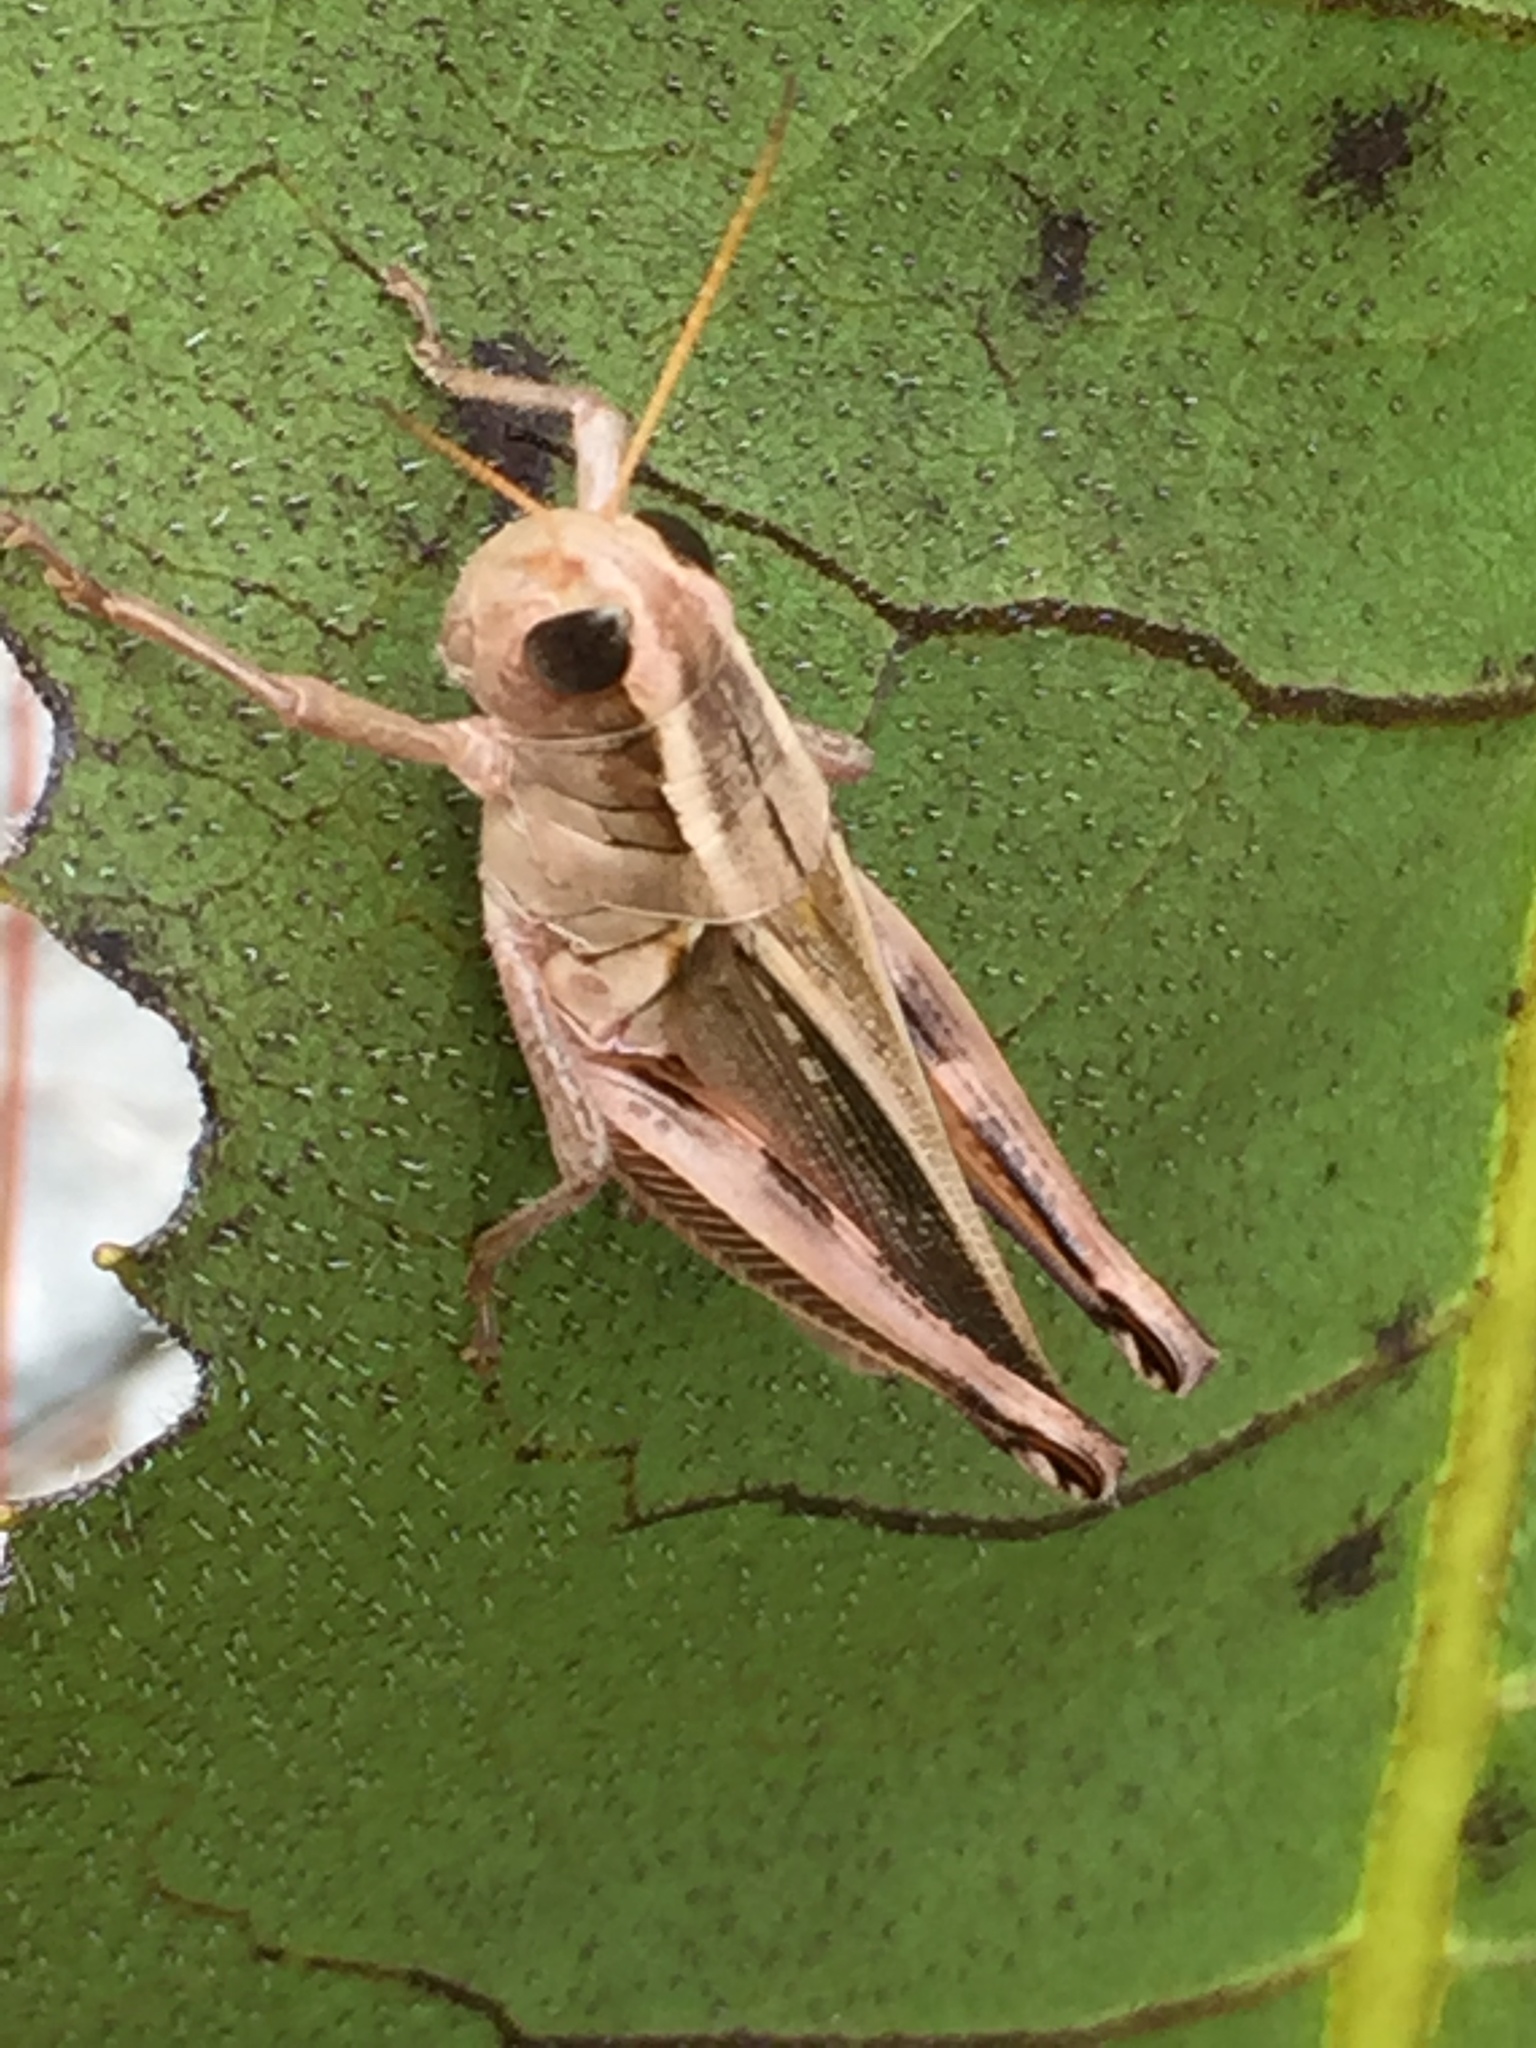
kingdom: Animalia
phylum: Arthropoda
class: Insecta
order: Orthoptera
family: Acrididae
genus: Melanoplus
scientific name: Melanoplus bivittatus
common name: Two-striped grasshopper
